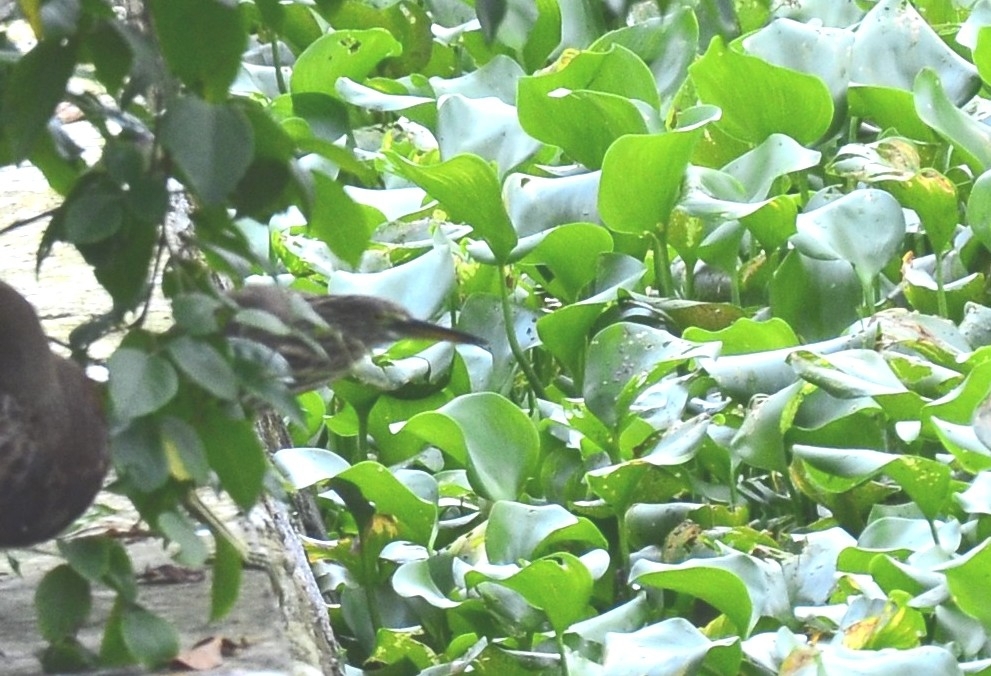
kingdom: Animalia
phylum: Chordata
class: Aves
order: Pelecaniformes
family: Ardeidae
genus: Ardeola
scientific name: Ardeola grayii
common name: Indian pond heron
